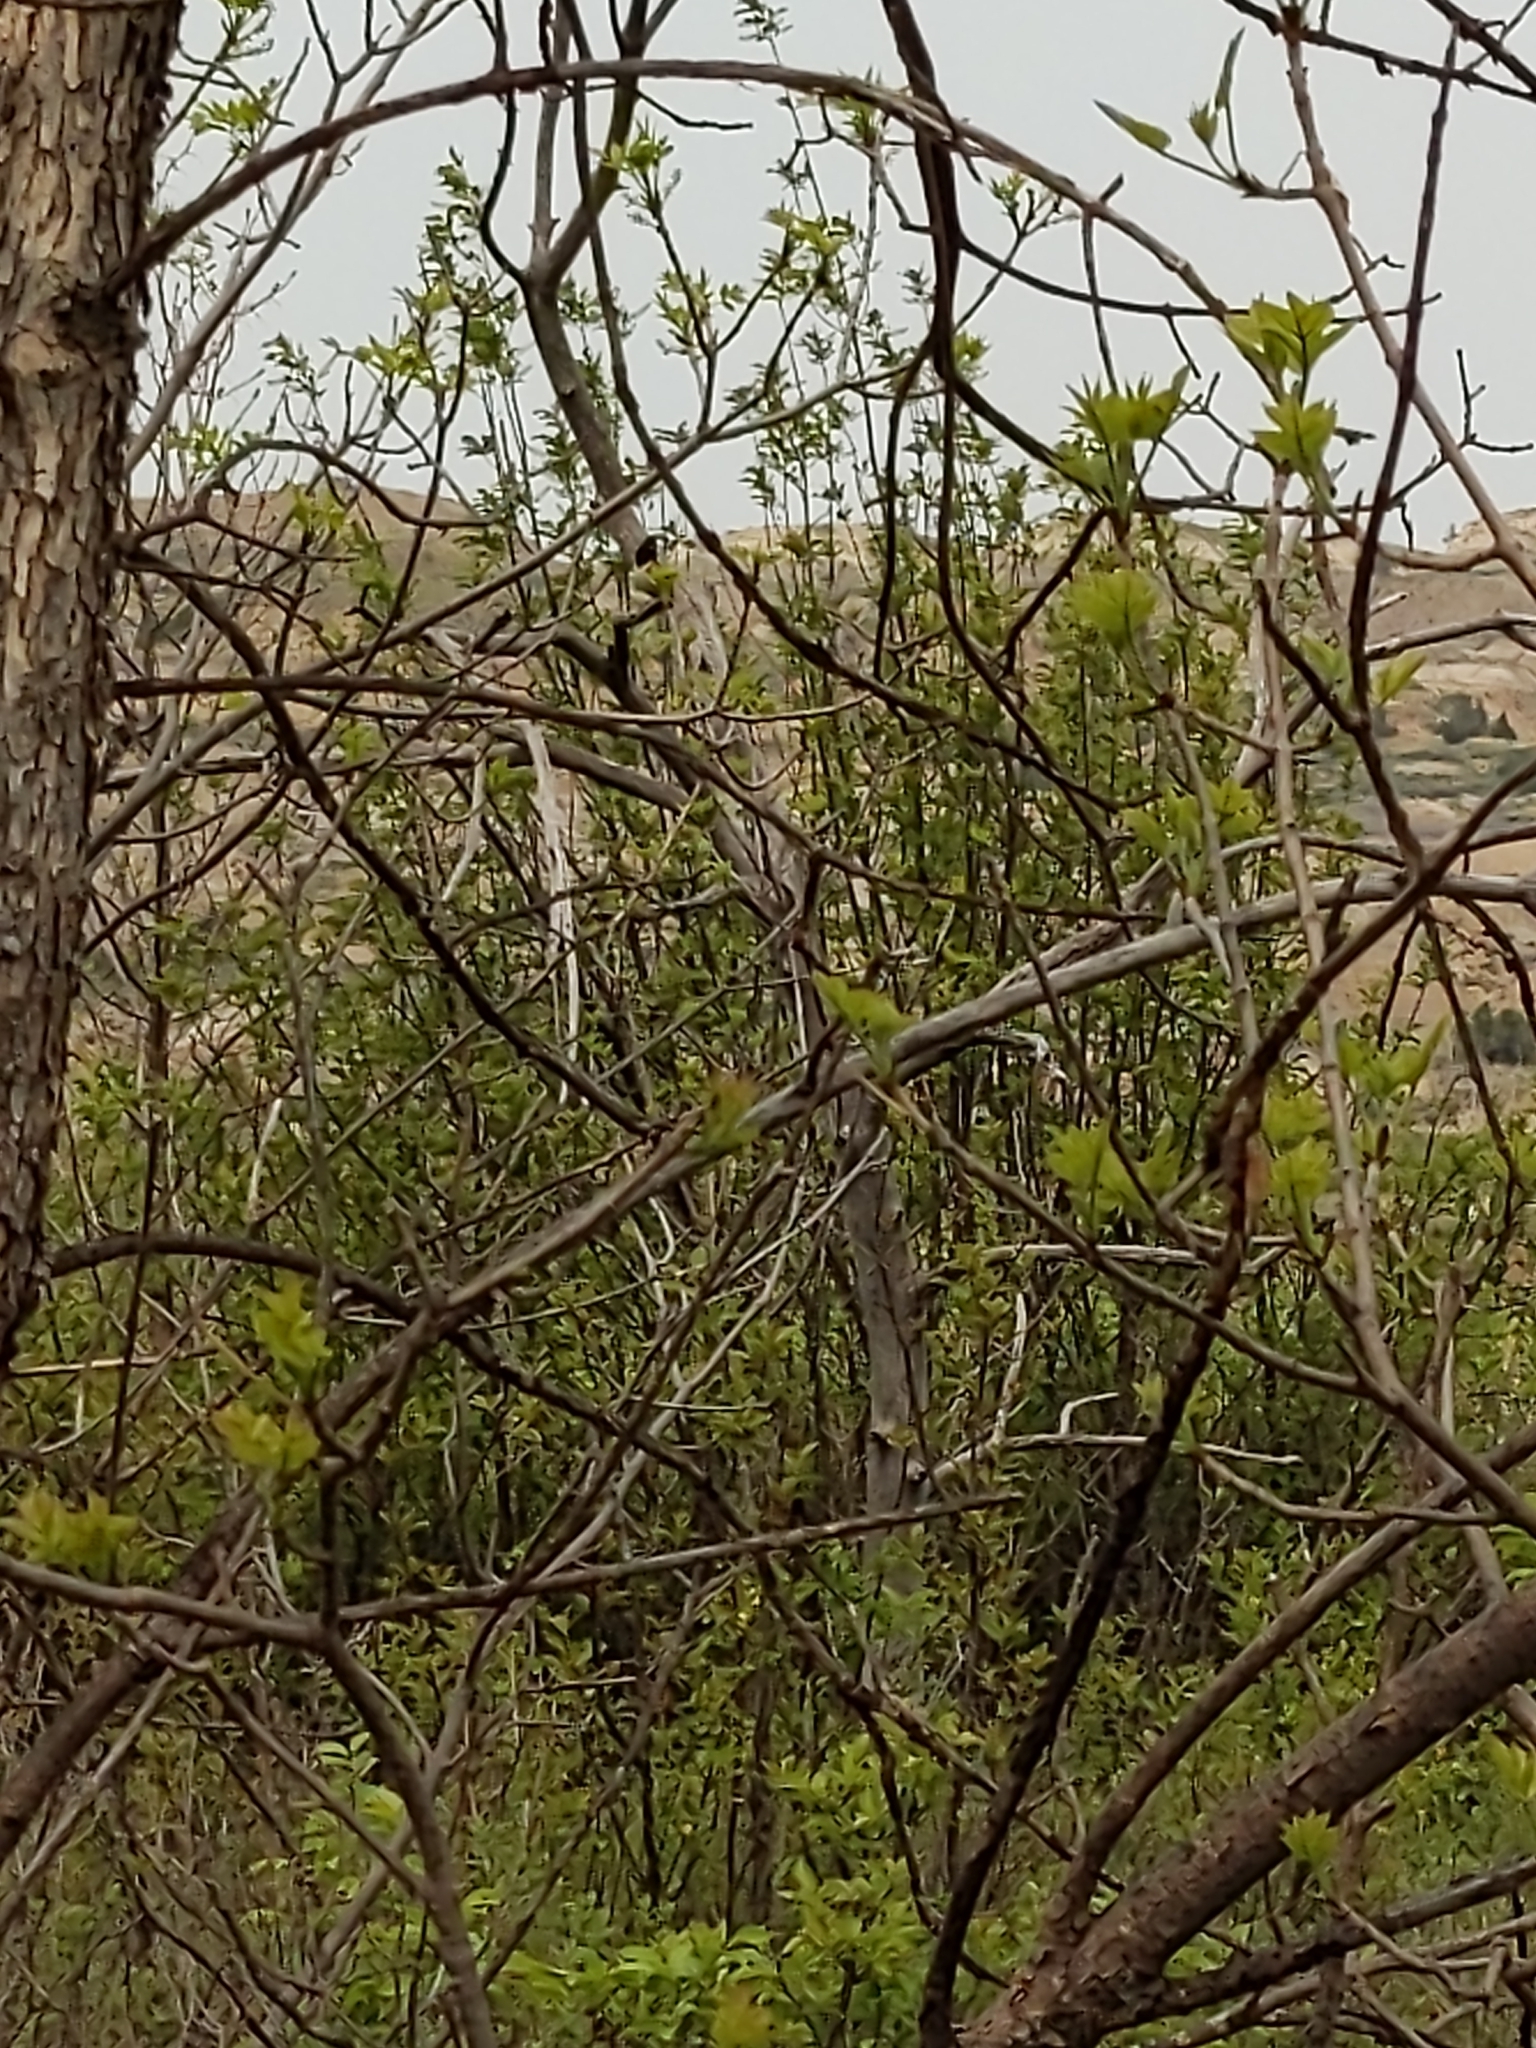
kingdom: Animalia
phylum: Chordata
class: Aves
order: Passeriformes
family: Passerellidae
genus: Pipilo
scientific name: Pipilo maculatus
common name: Spotted towhee
